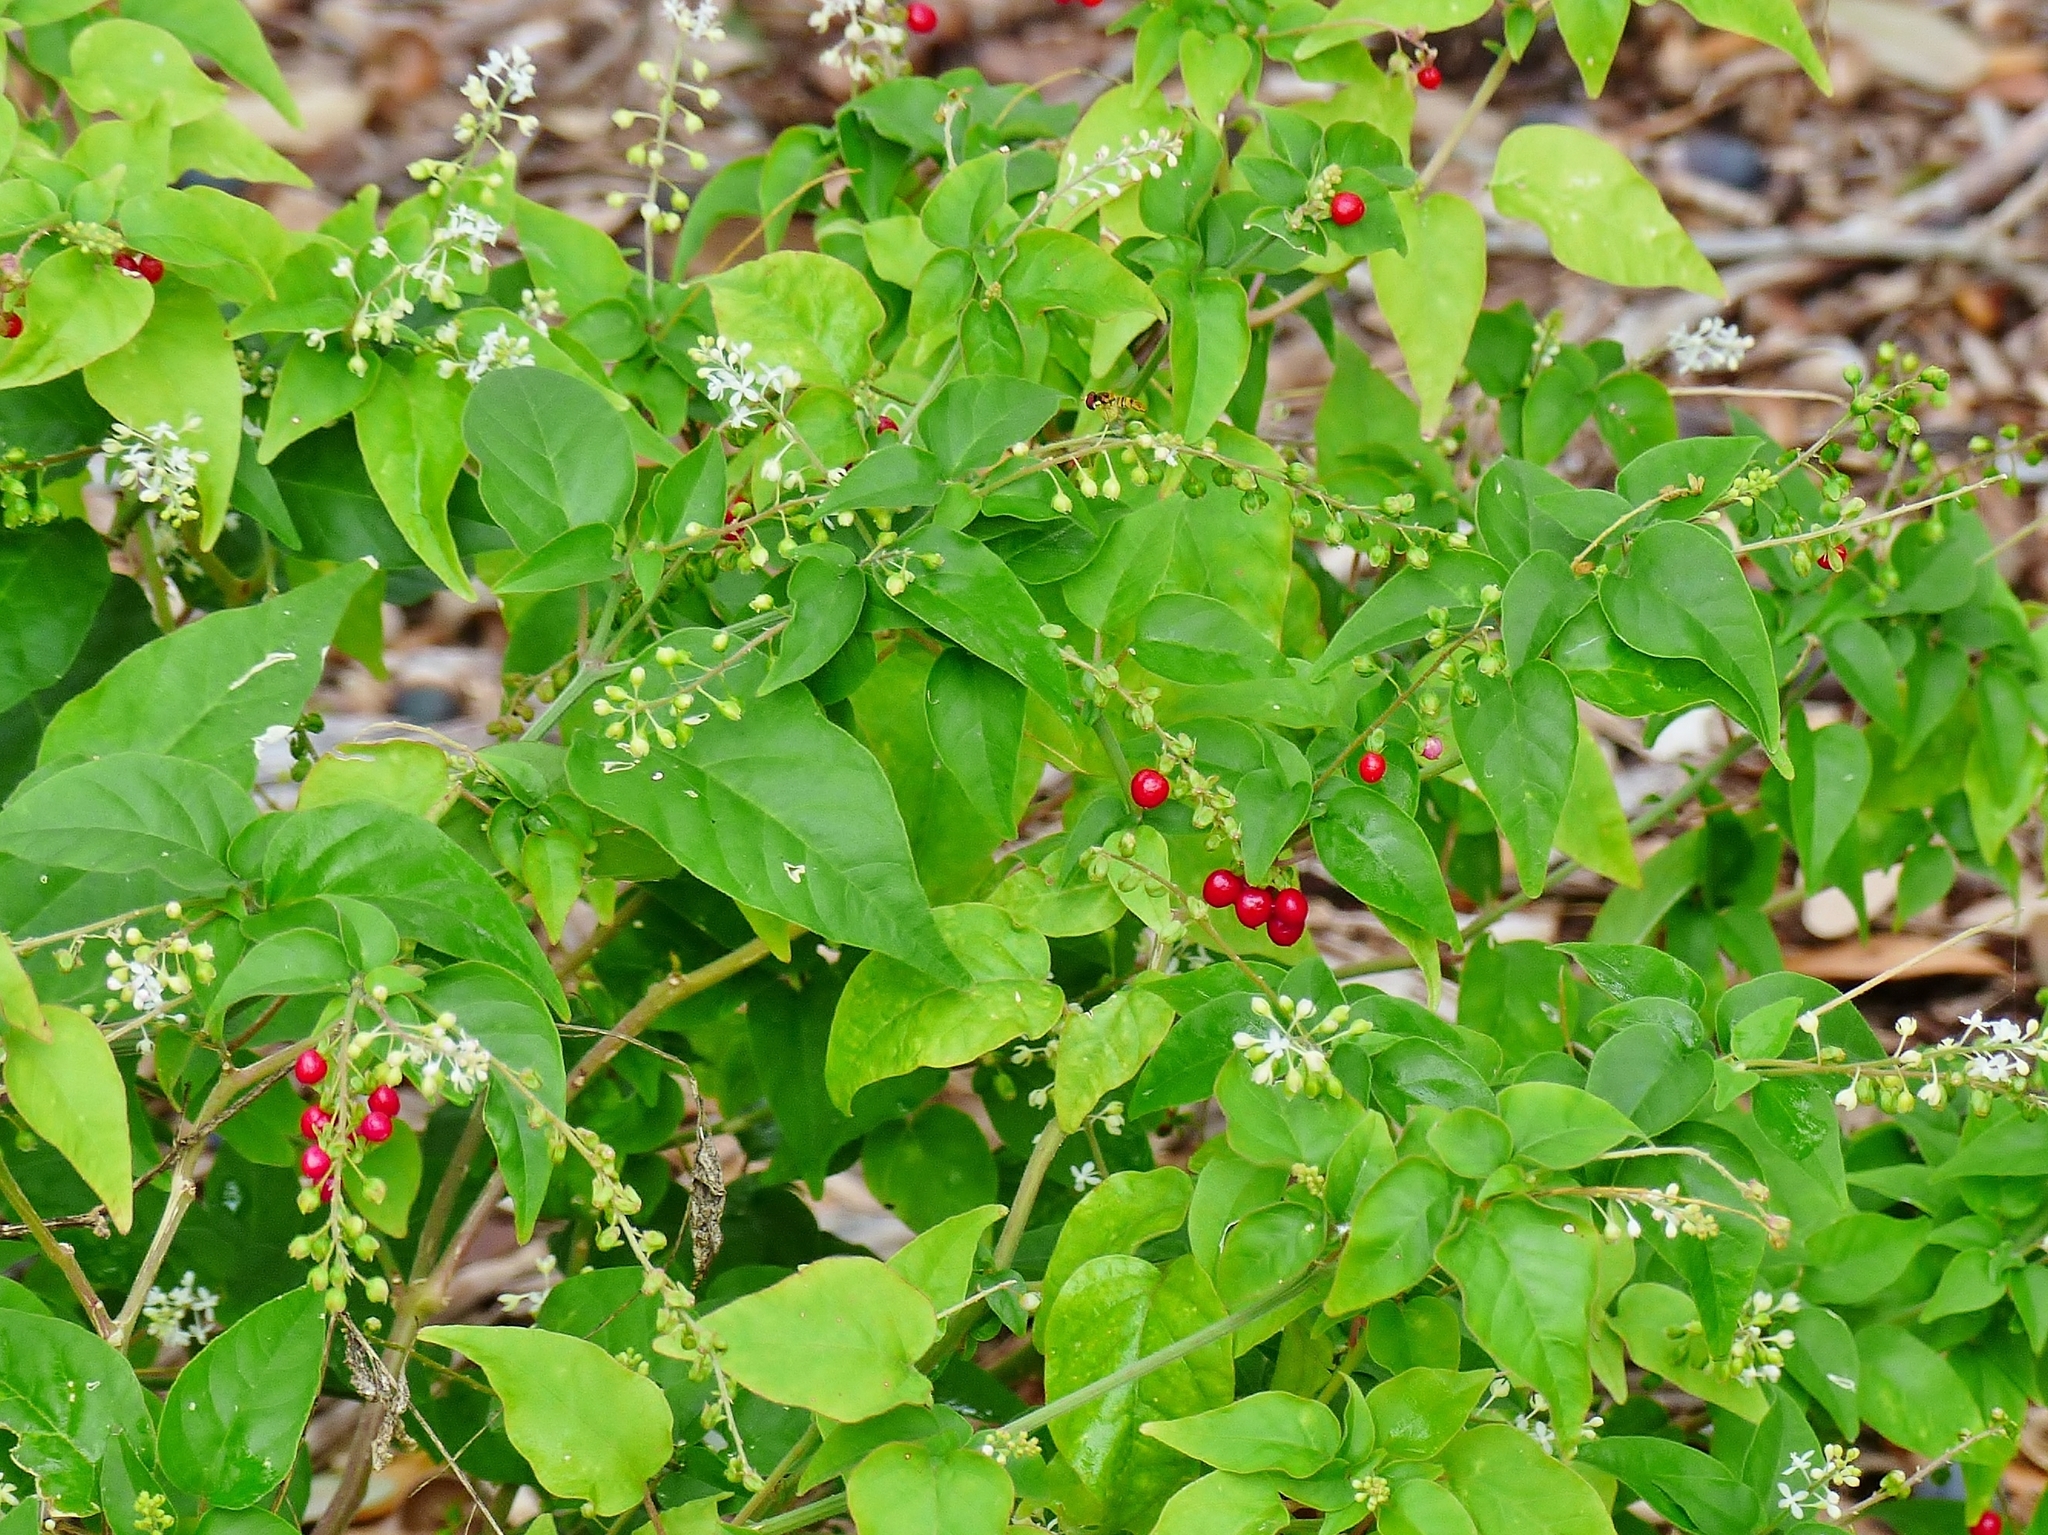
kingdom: Plantae
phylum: Tracheophyta
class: Magnoliopsida
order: Caryophyllales
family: Phytolaccaceae
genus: Rivina
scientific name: Rivina humilis
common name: Rougeplant
